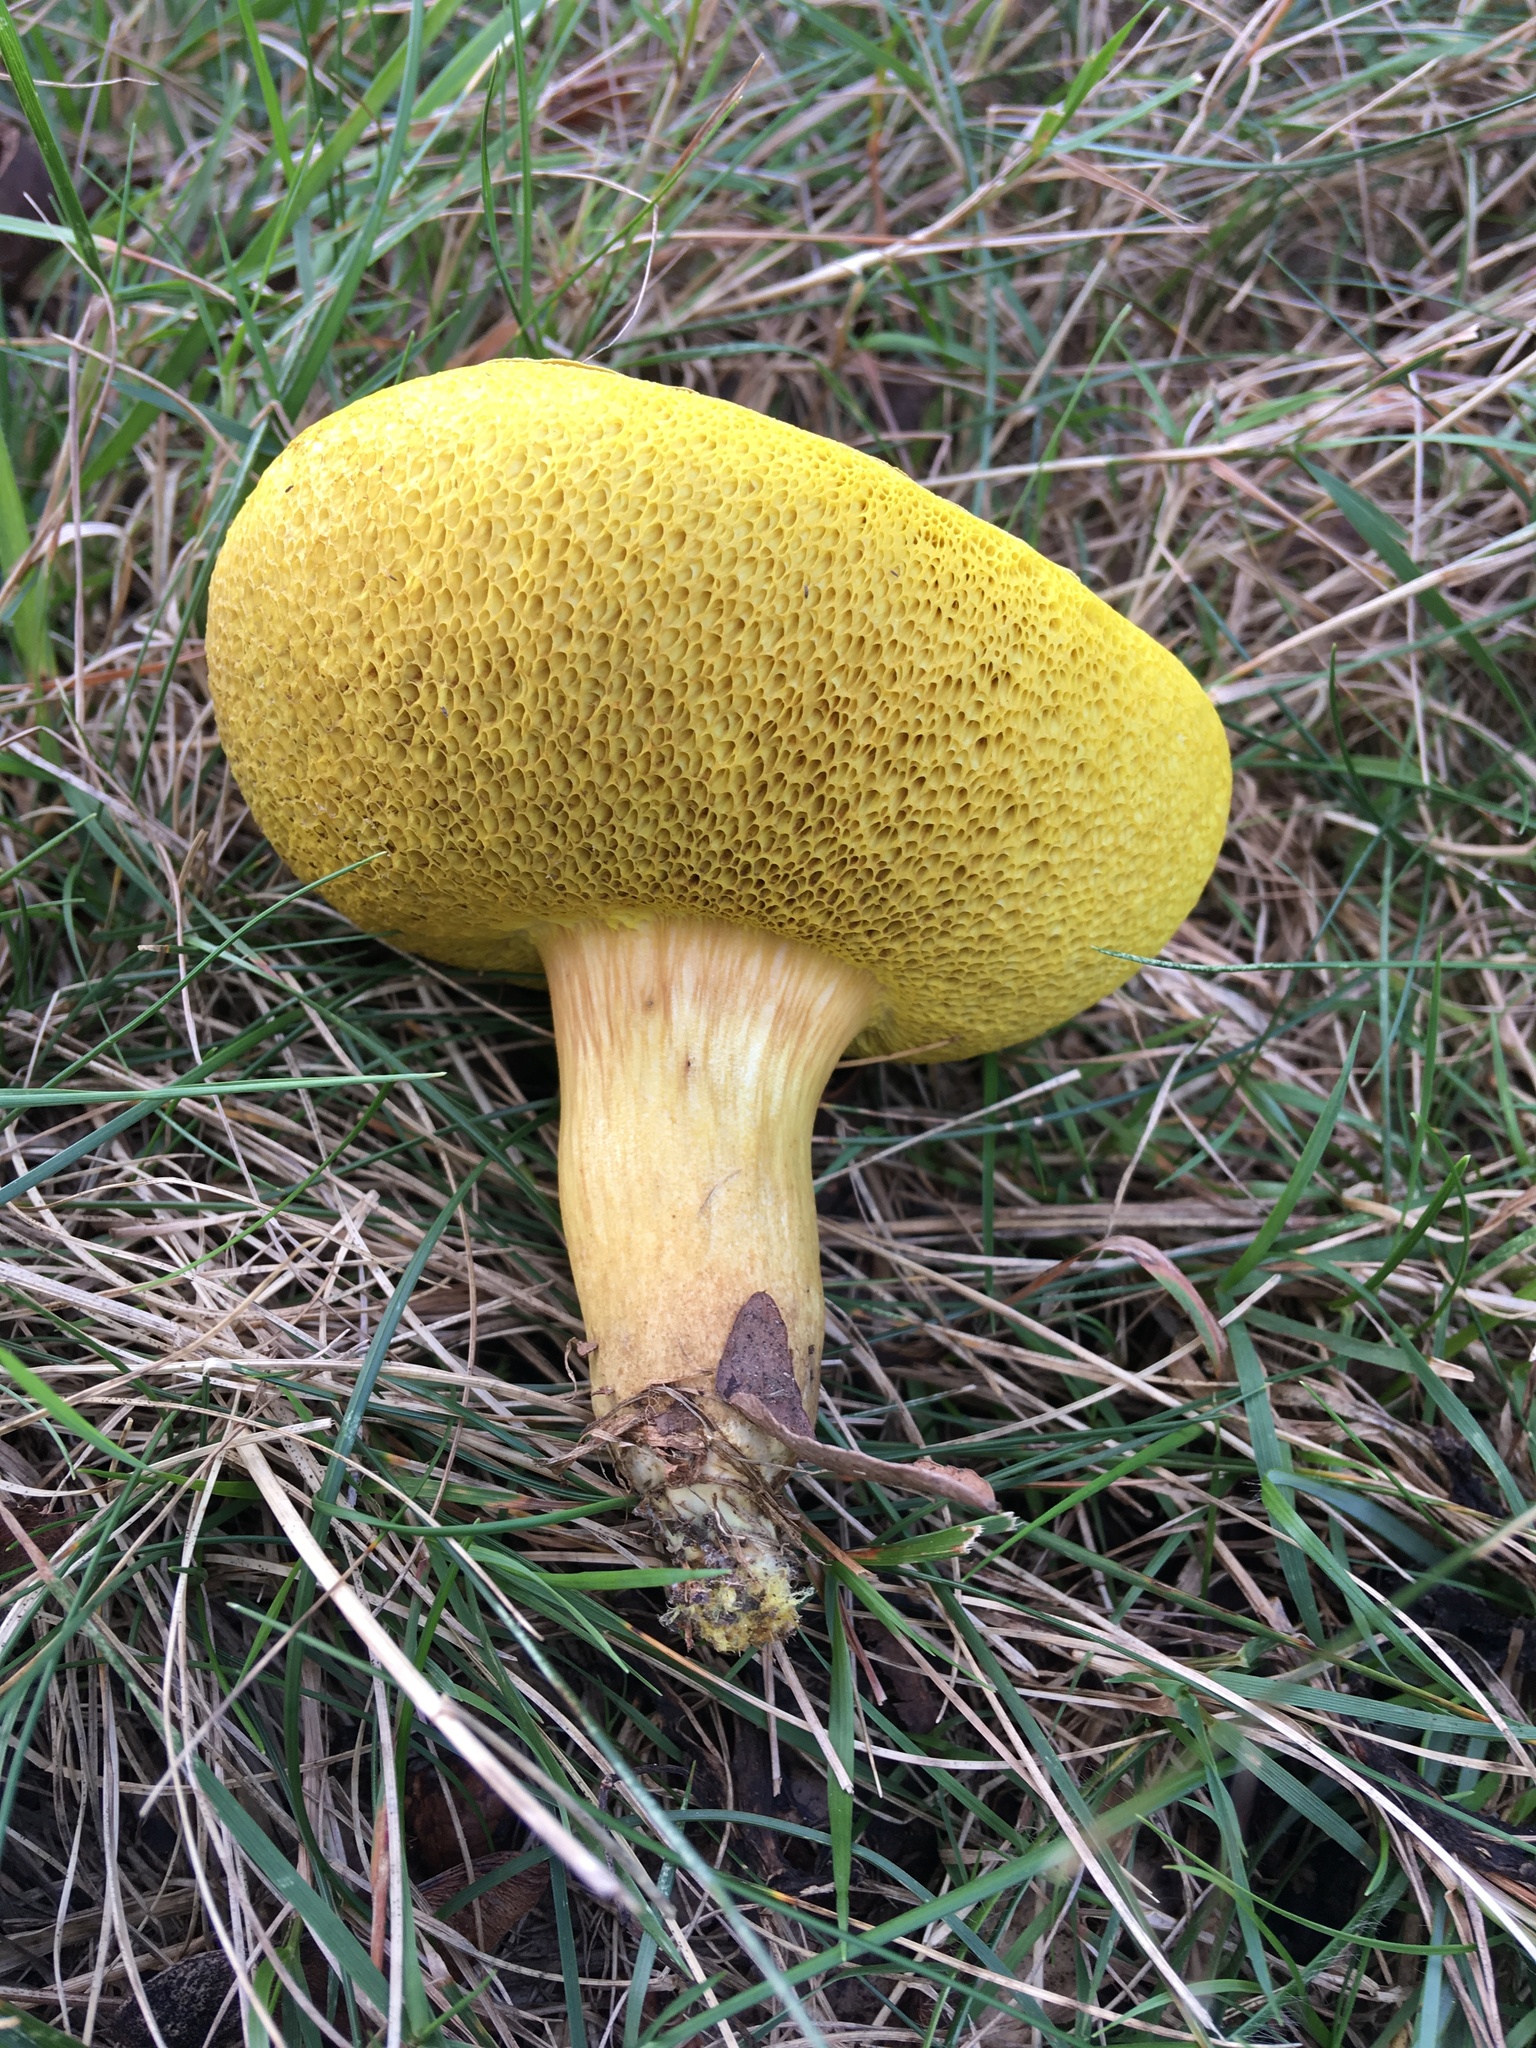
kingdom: Fungi
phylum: Basidiomycota
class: Agaricomycetes
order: Boletales
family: Boletaceae
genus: Aureoboletus
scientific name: Aureoboletus innixus
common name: Clustered brown bolete
